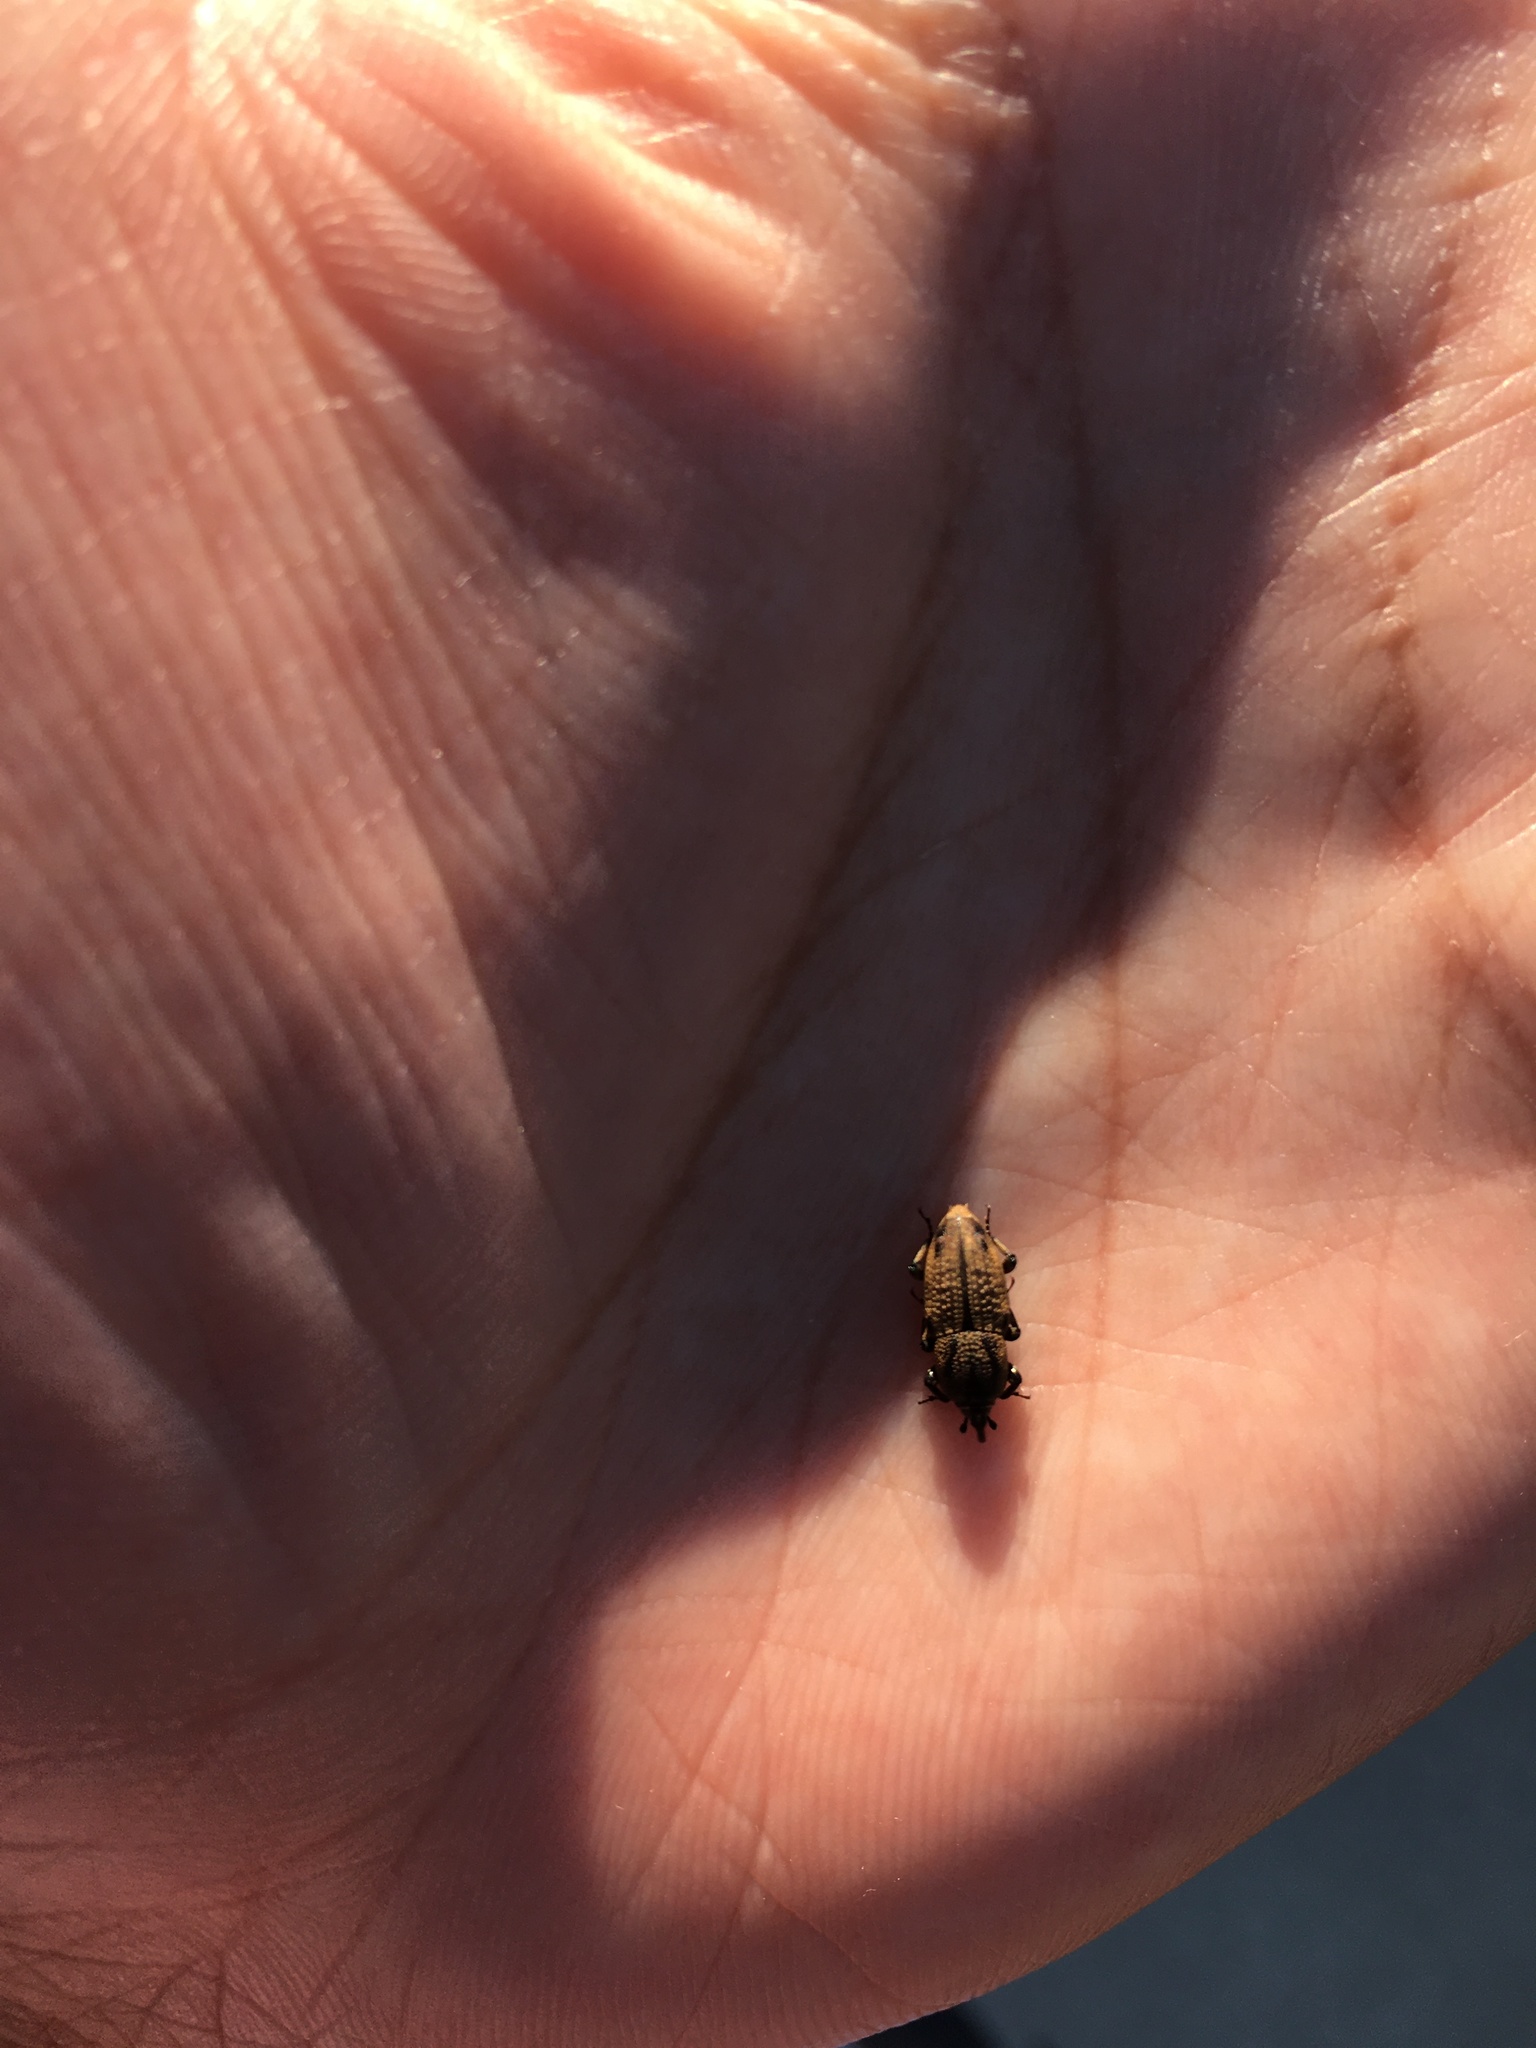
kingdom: Animalia
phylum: Arthropoda
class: Insecta
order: Coleoptera
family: Dryophthoridae
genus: Sphenophorus
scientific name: Sphenophorus venatus
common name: Hunting billbug
